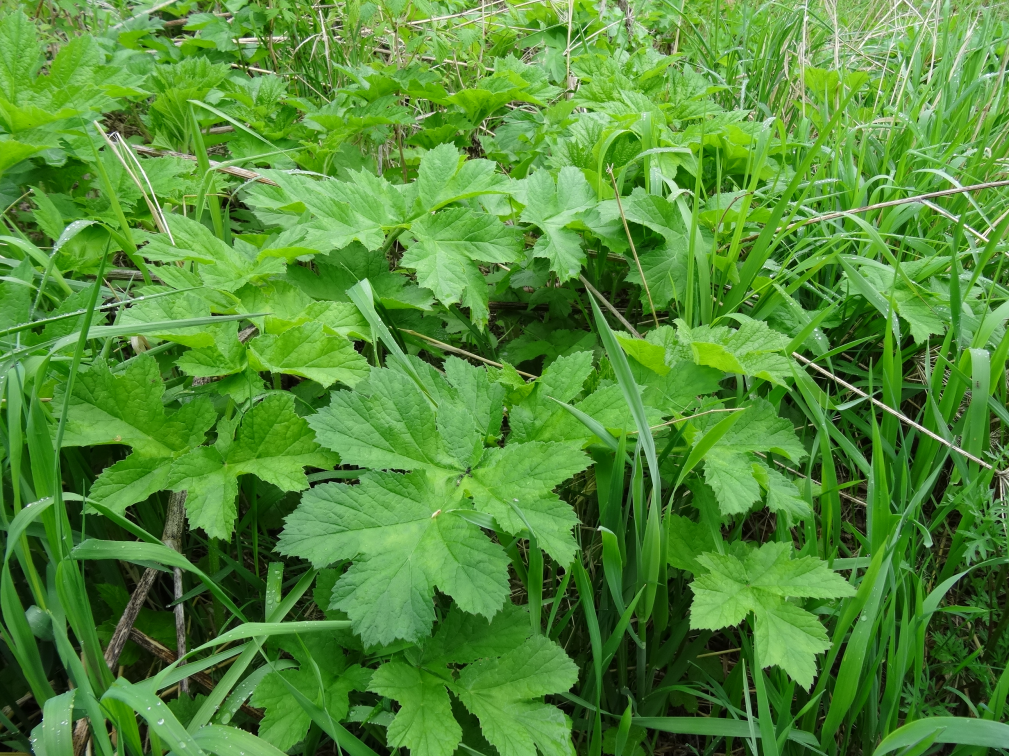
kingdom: Plantae
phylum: Tracheophyta
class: Magnoliopsida
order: Apiales
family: Apiaceae
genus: Heracleum
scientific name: Heracleum sphondylium
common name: Hogweed
